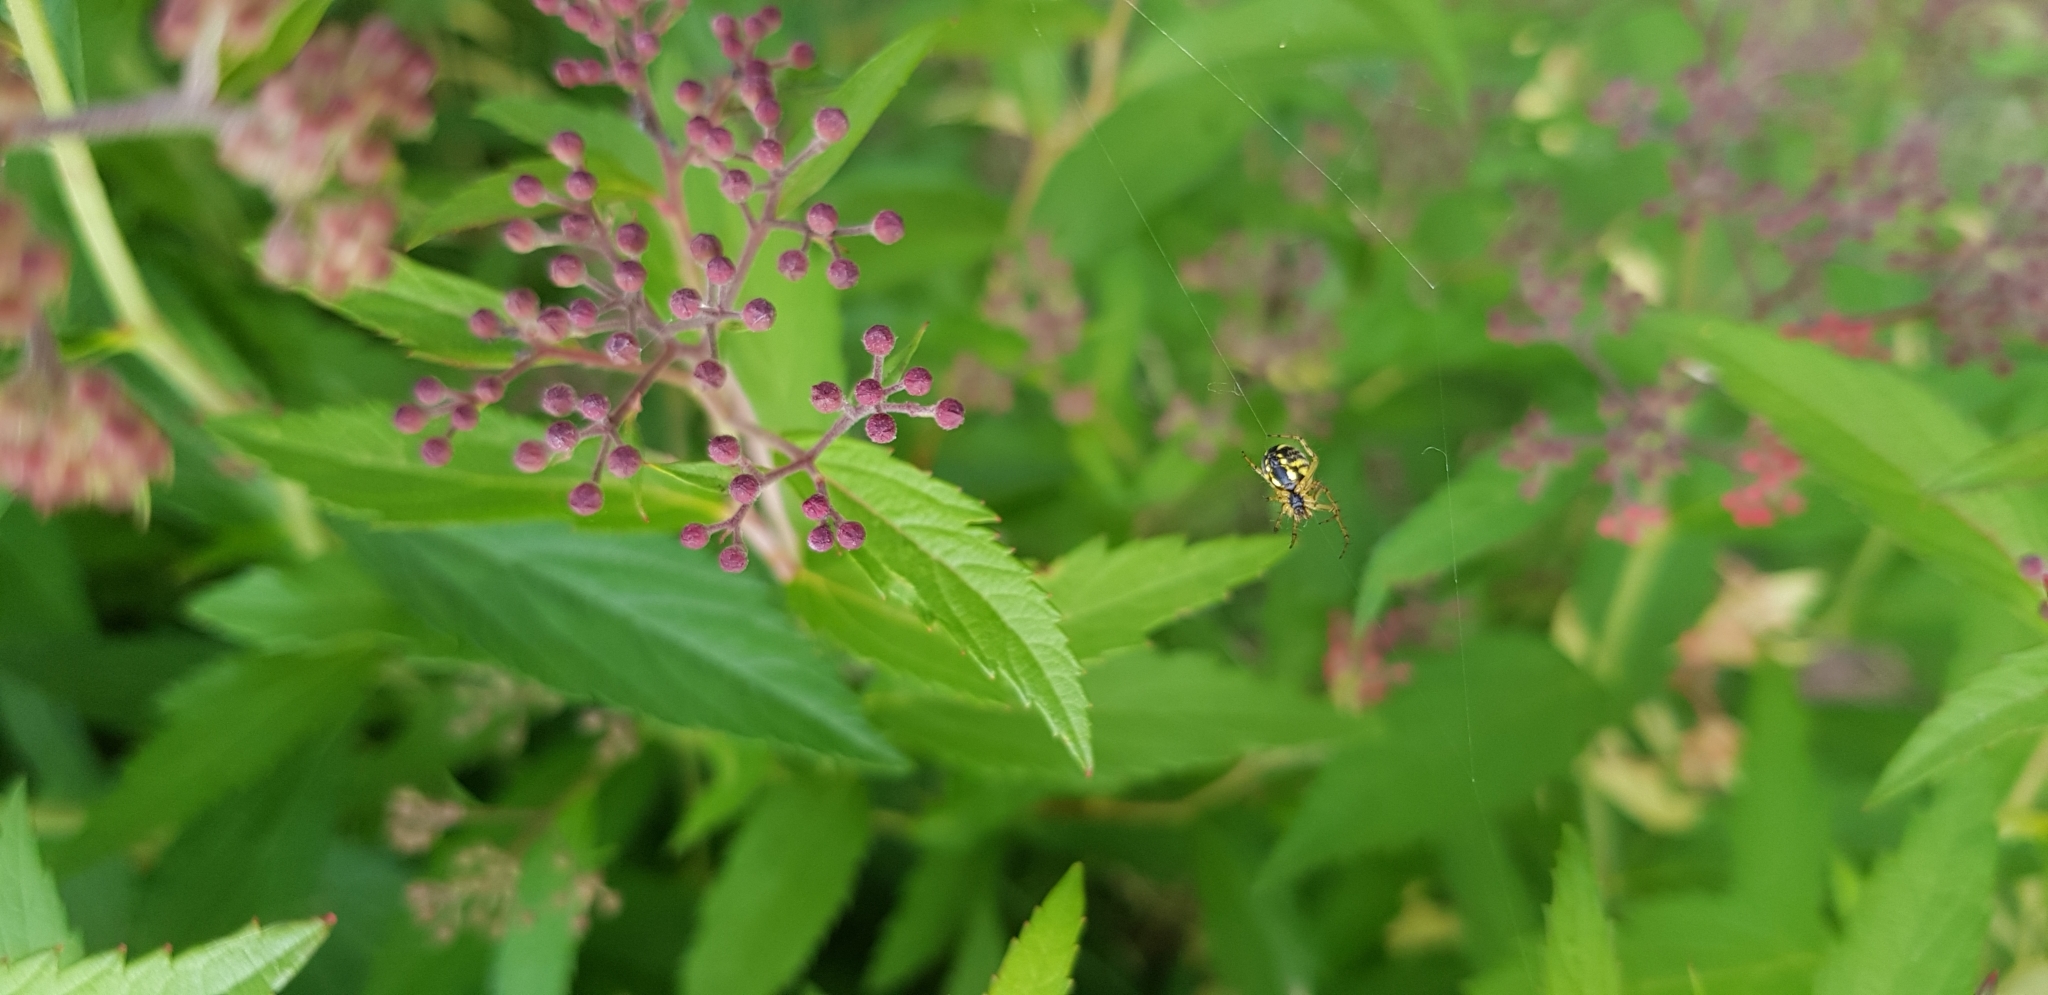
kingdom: Animalia
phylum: Arthropoda
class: Arachnida
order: Araneae
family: Araneidae
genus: Mangora
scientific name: Mangora acalypha
